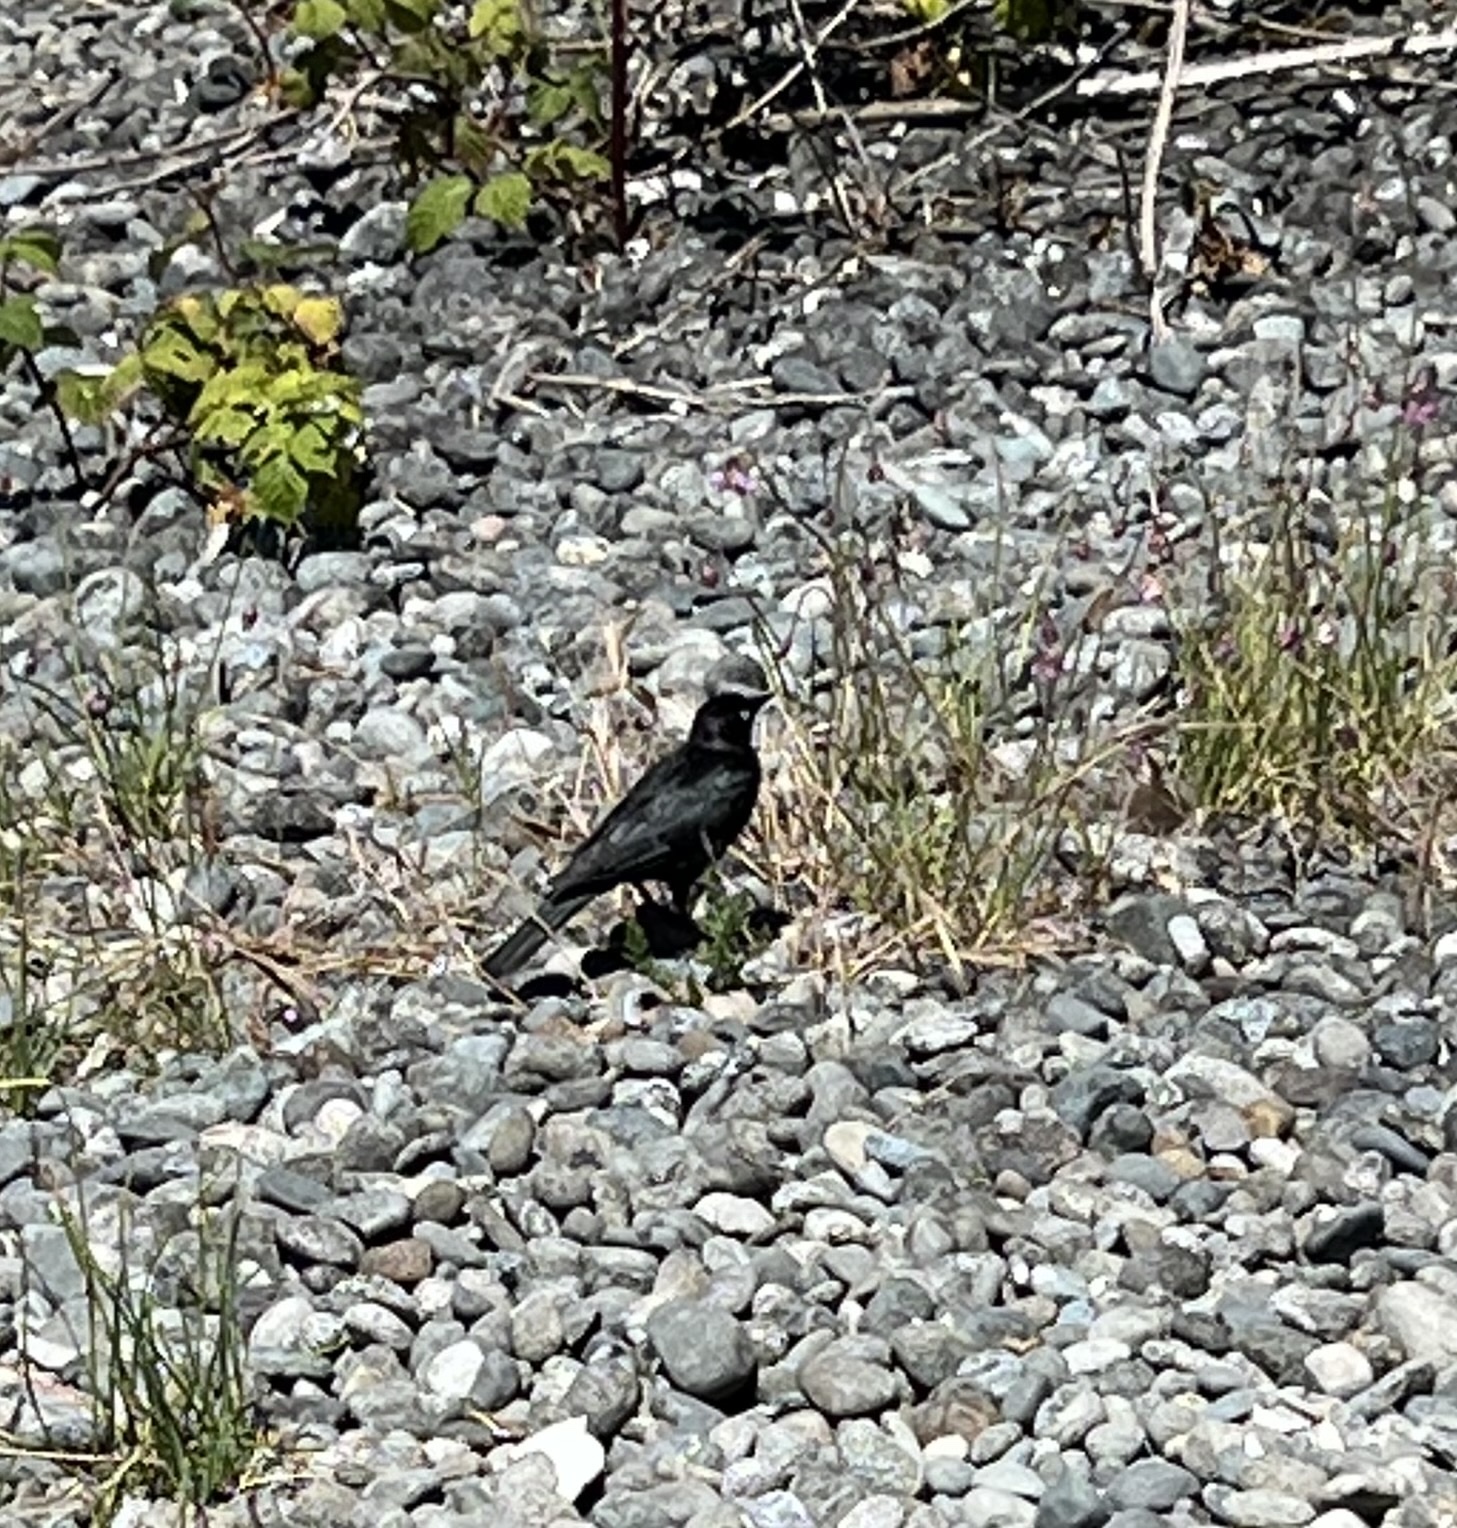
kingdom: Animalia
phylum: Chordata
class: Aves
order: Passeriformes
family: Icteridae
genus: Euphagus
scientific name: Euphagus cyanocephalus
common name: Brewer's blackbird
